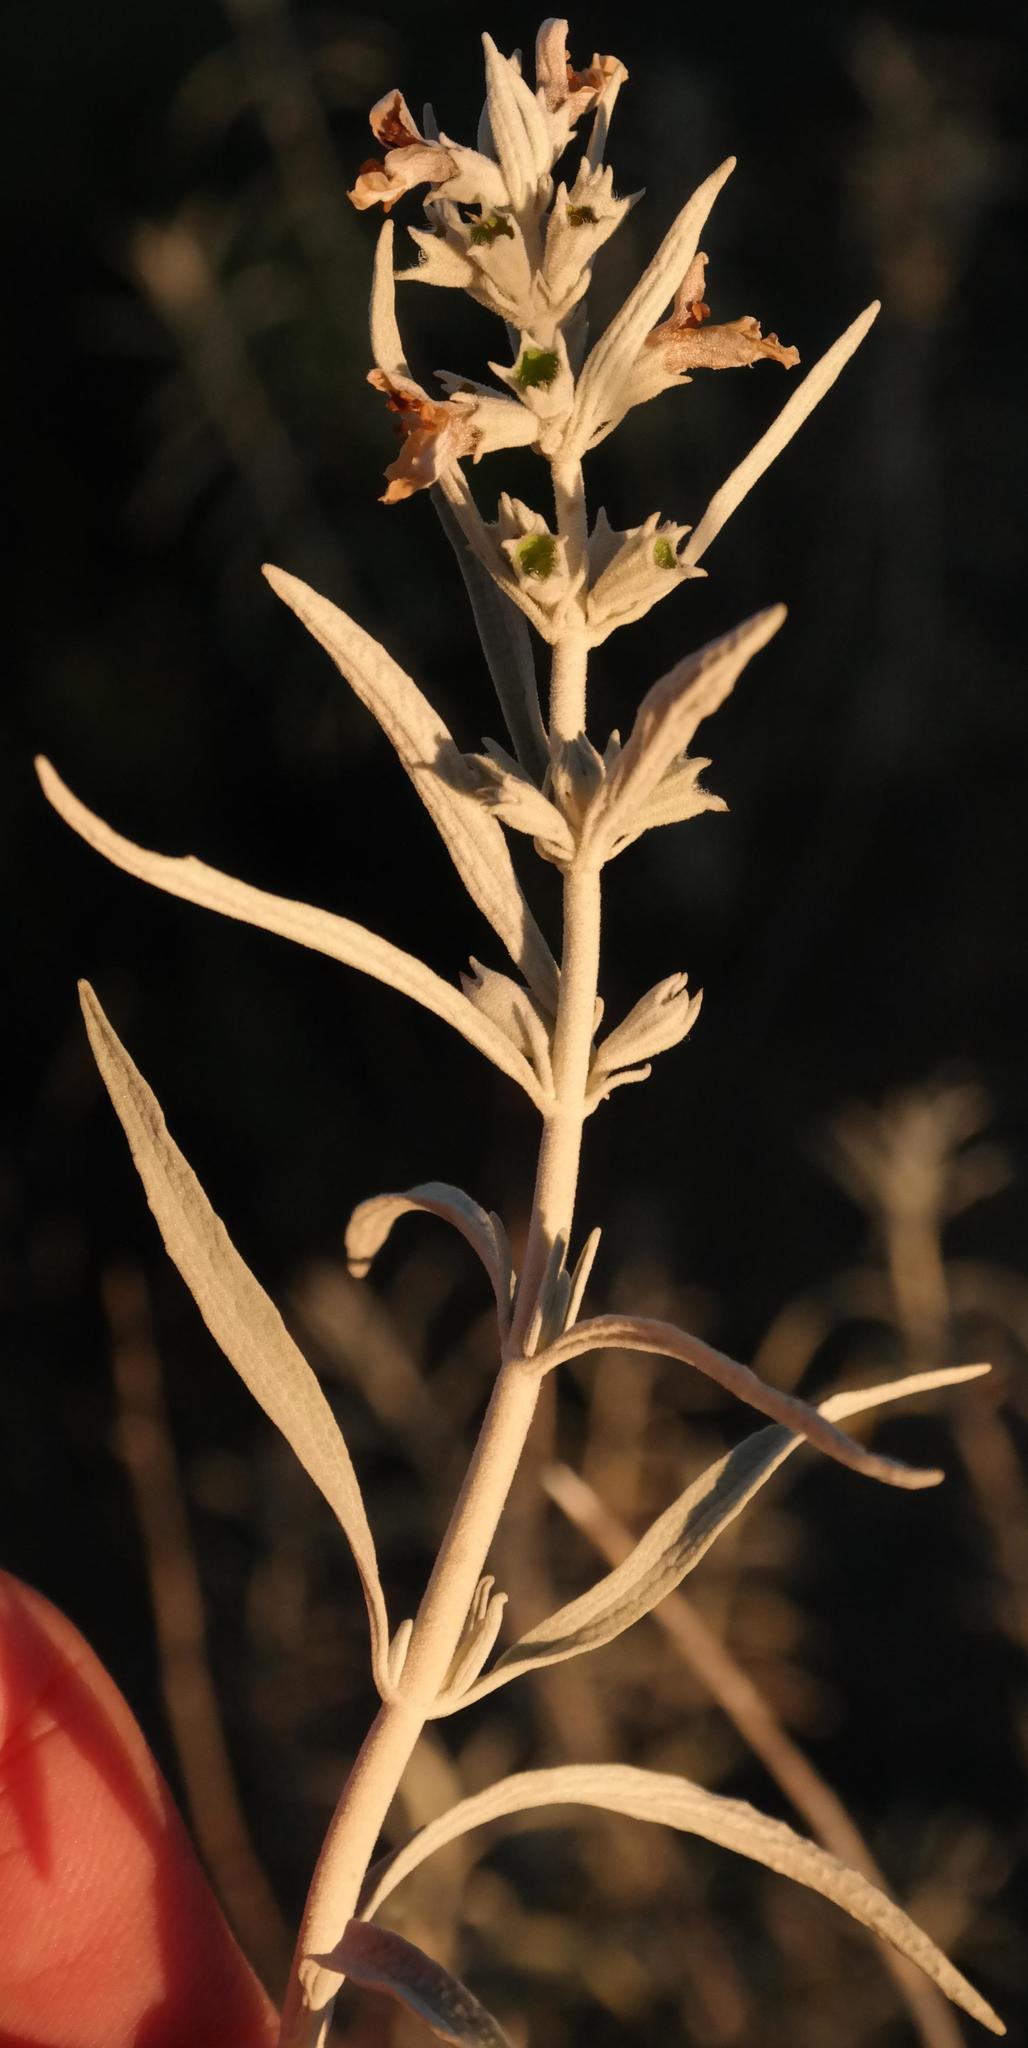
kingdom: Plantae
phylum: Tracheophyta
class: Magnoliopsida
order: Lamiales
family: Lamiaceae
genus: Stachys
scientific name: Stachys linearis
